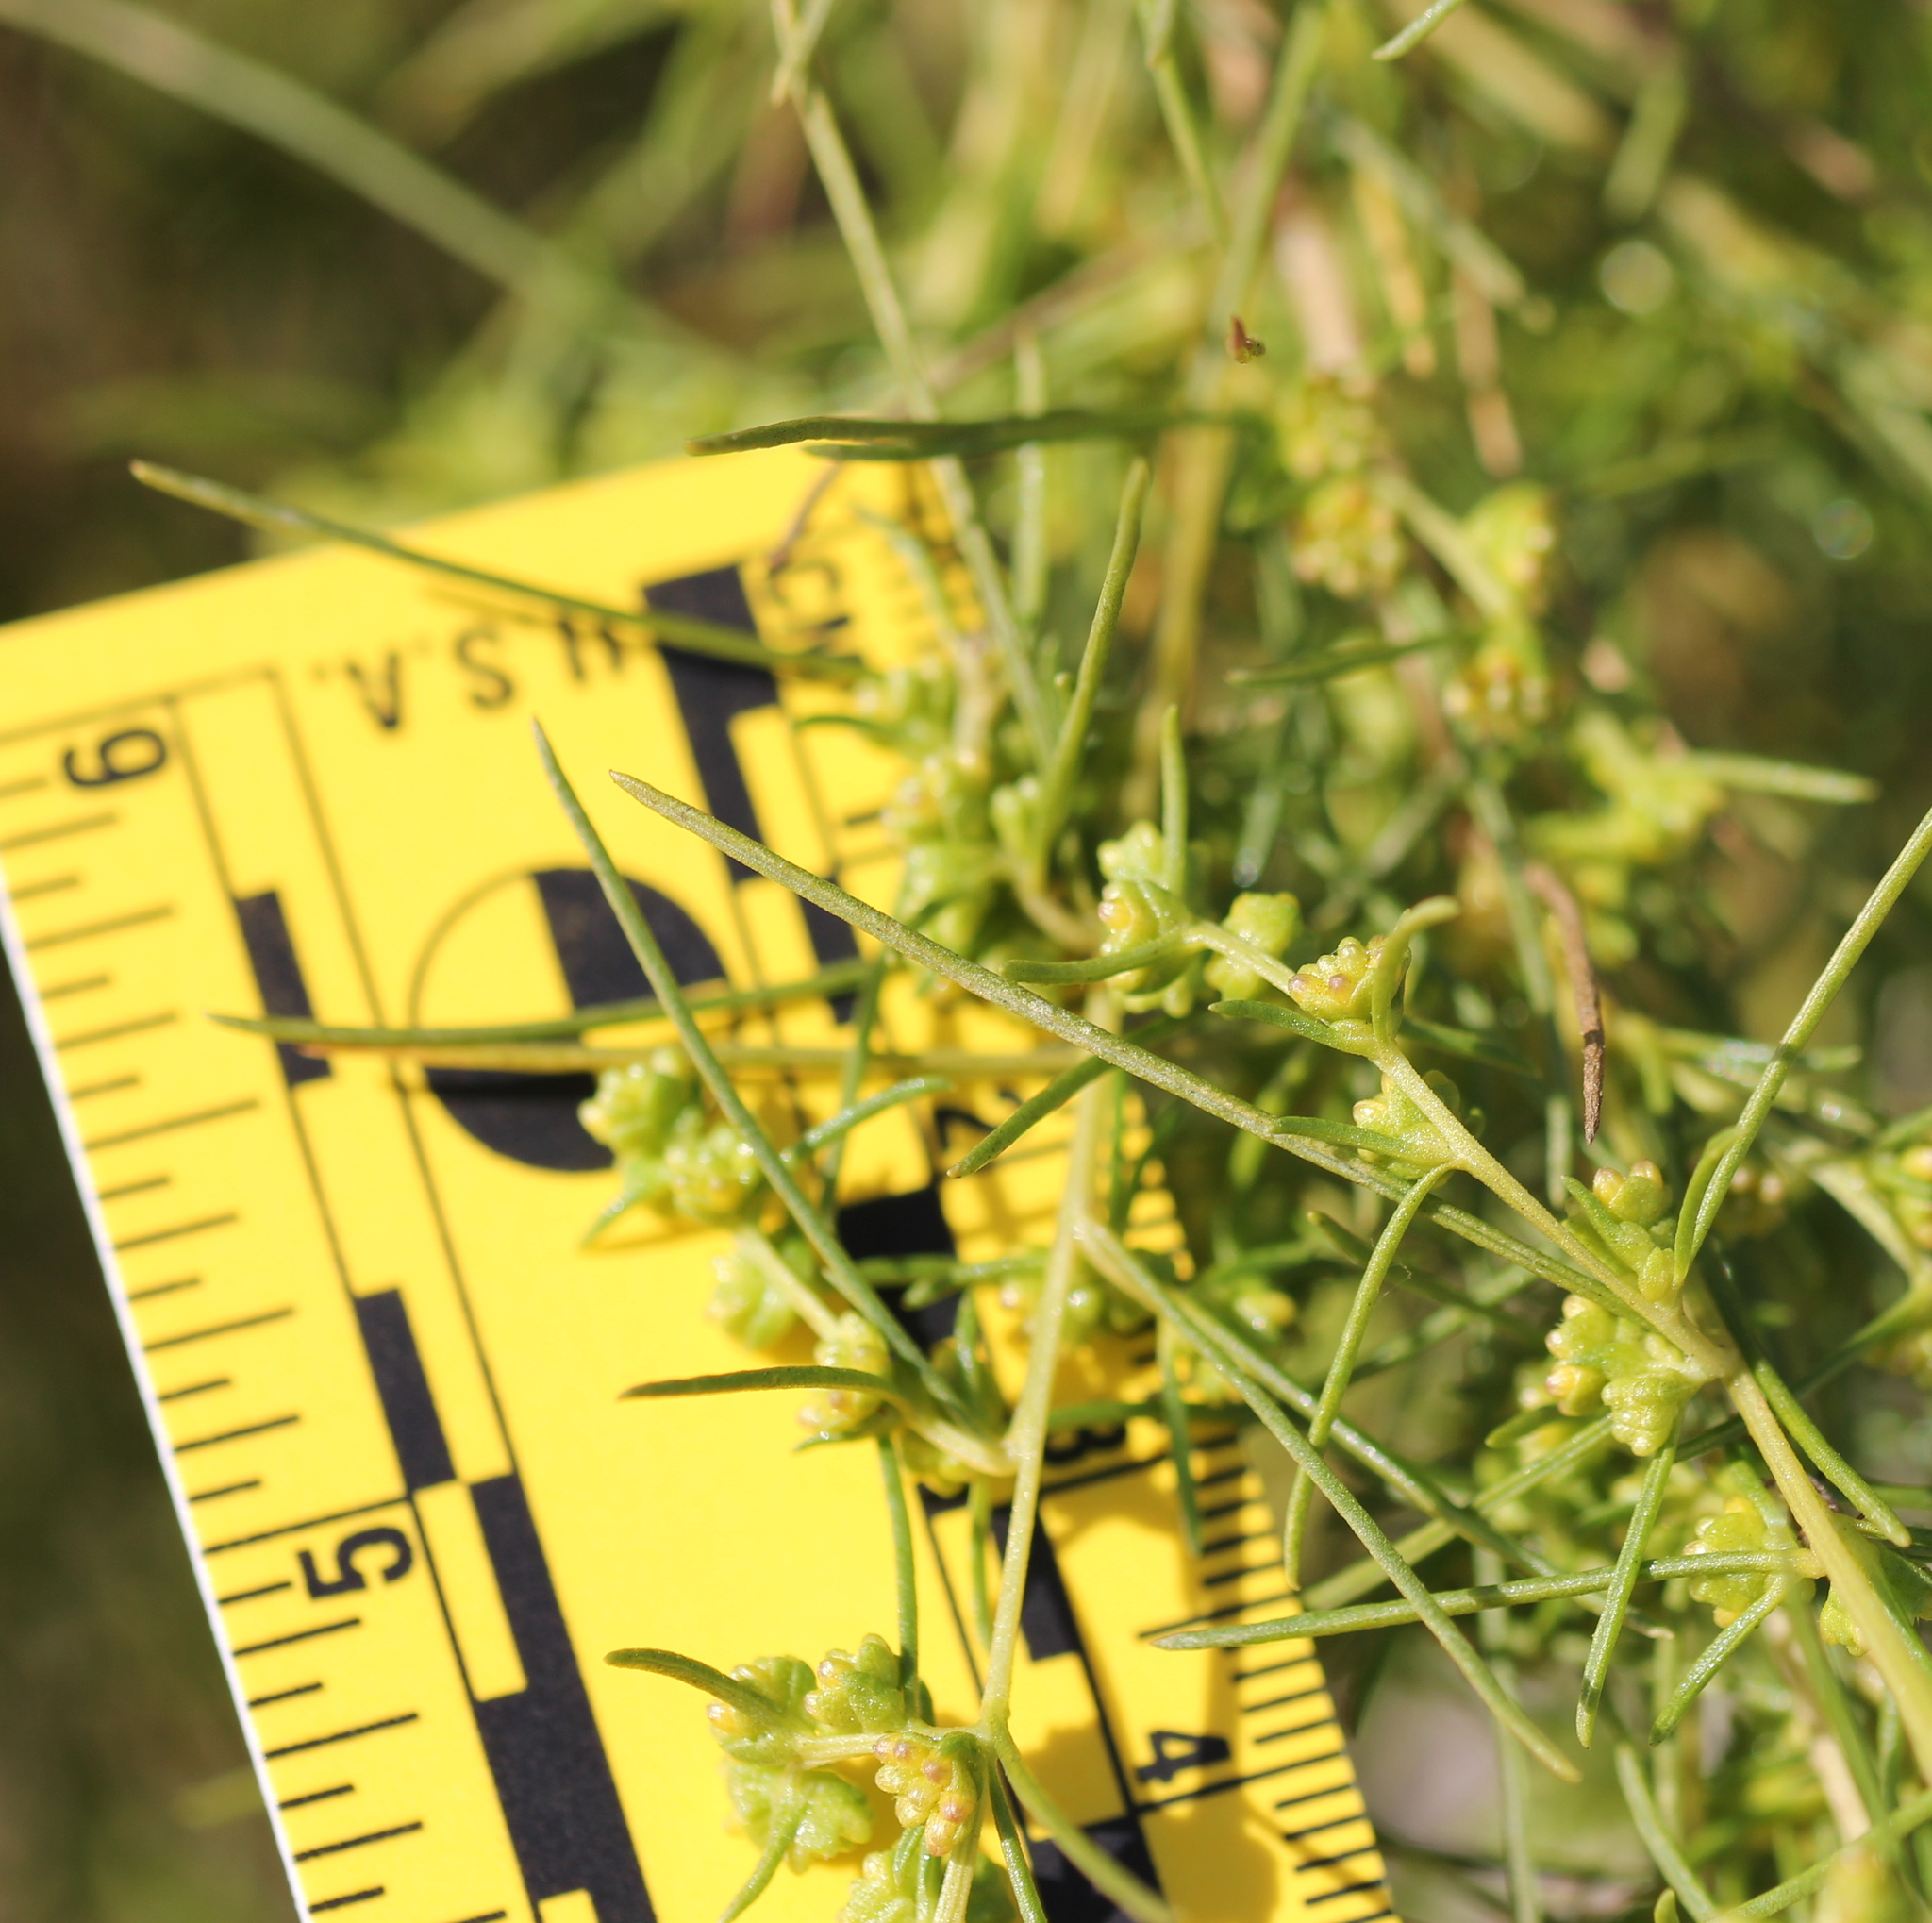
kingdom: Plantae
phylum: Tracheophyta
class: Magnoliopsida
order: Asterales
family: Asteraceae
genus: Ambrosia
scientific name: Ambrosia monogyra
